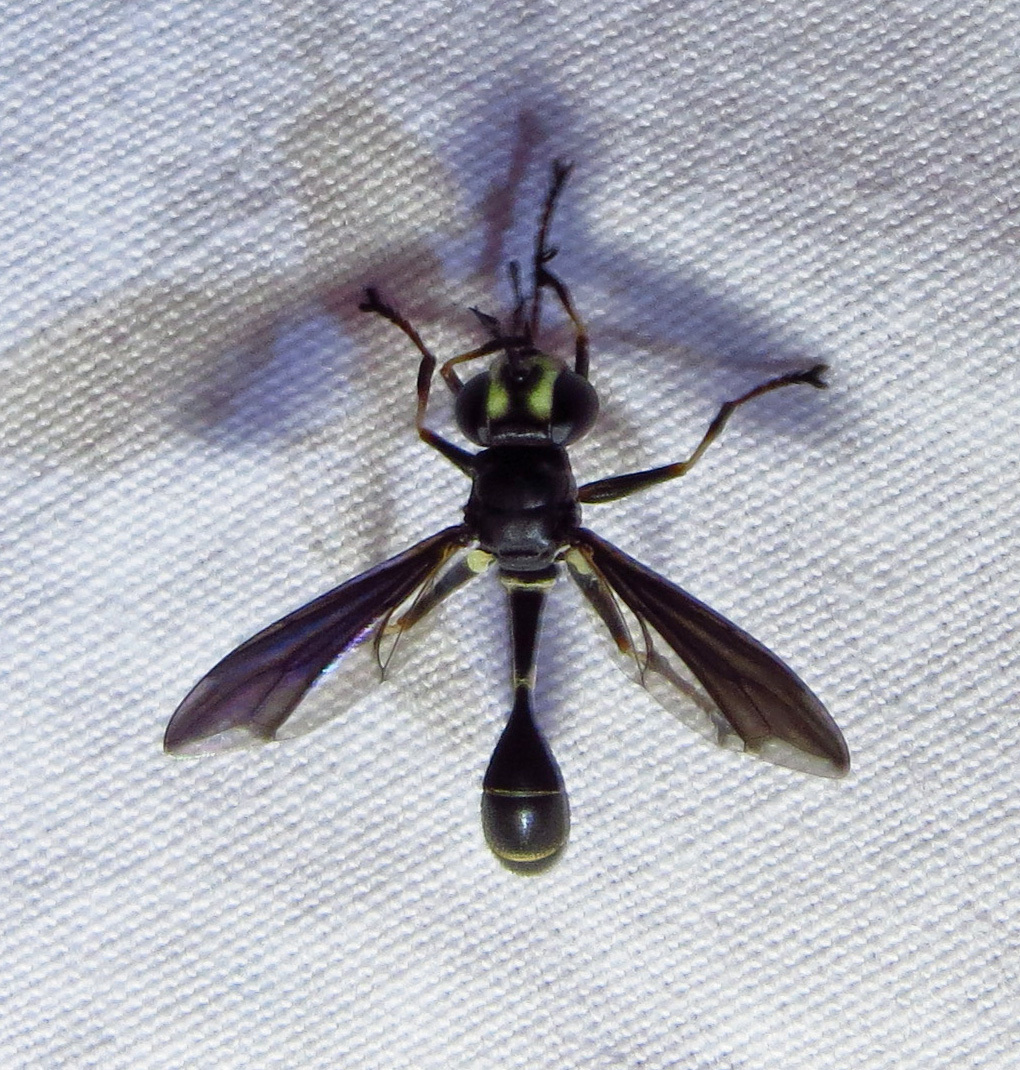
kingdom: Animalia
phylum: Arthropoda
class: Insecta
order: Diptera
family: Conopidae
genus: Physocephala
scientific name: Physocephala tibialis
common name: Common eastern physocephala
